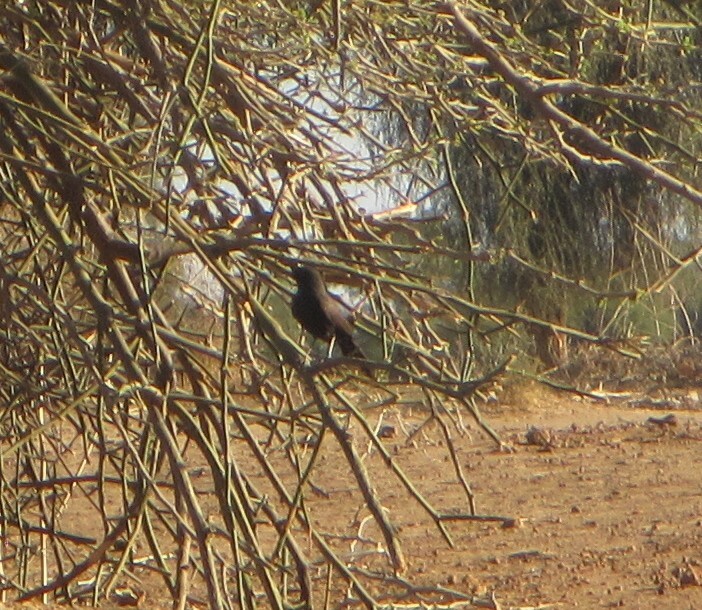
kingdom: Animalia
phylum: Chordata
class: Aves
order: Passeriformes
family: Muscicapidae
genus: Cercotrichas
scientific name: Cercotrichas podobe
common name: Black scrub robin
